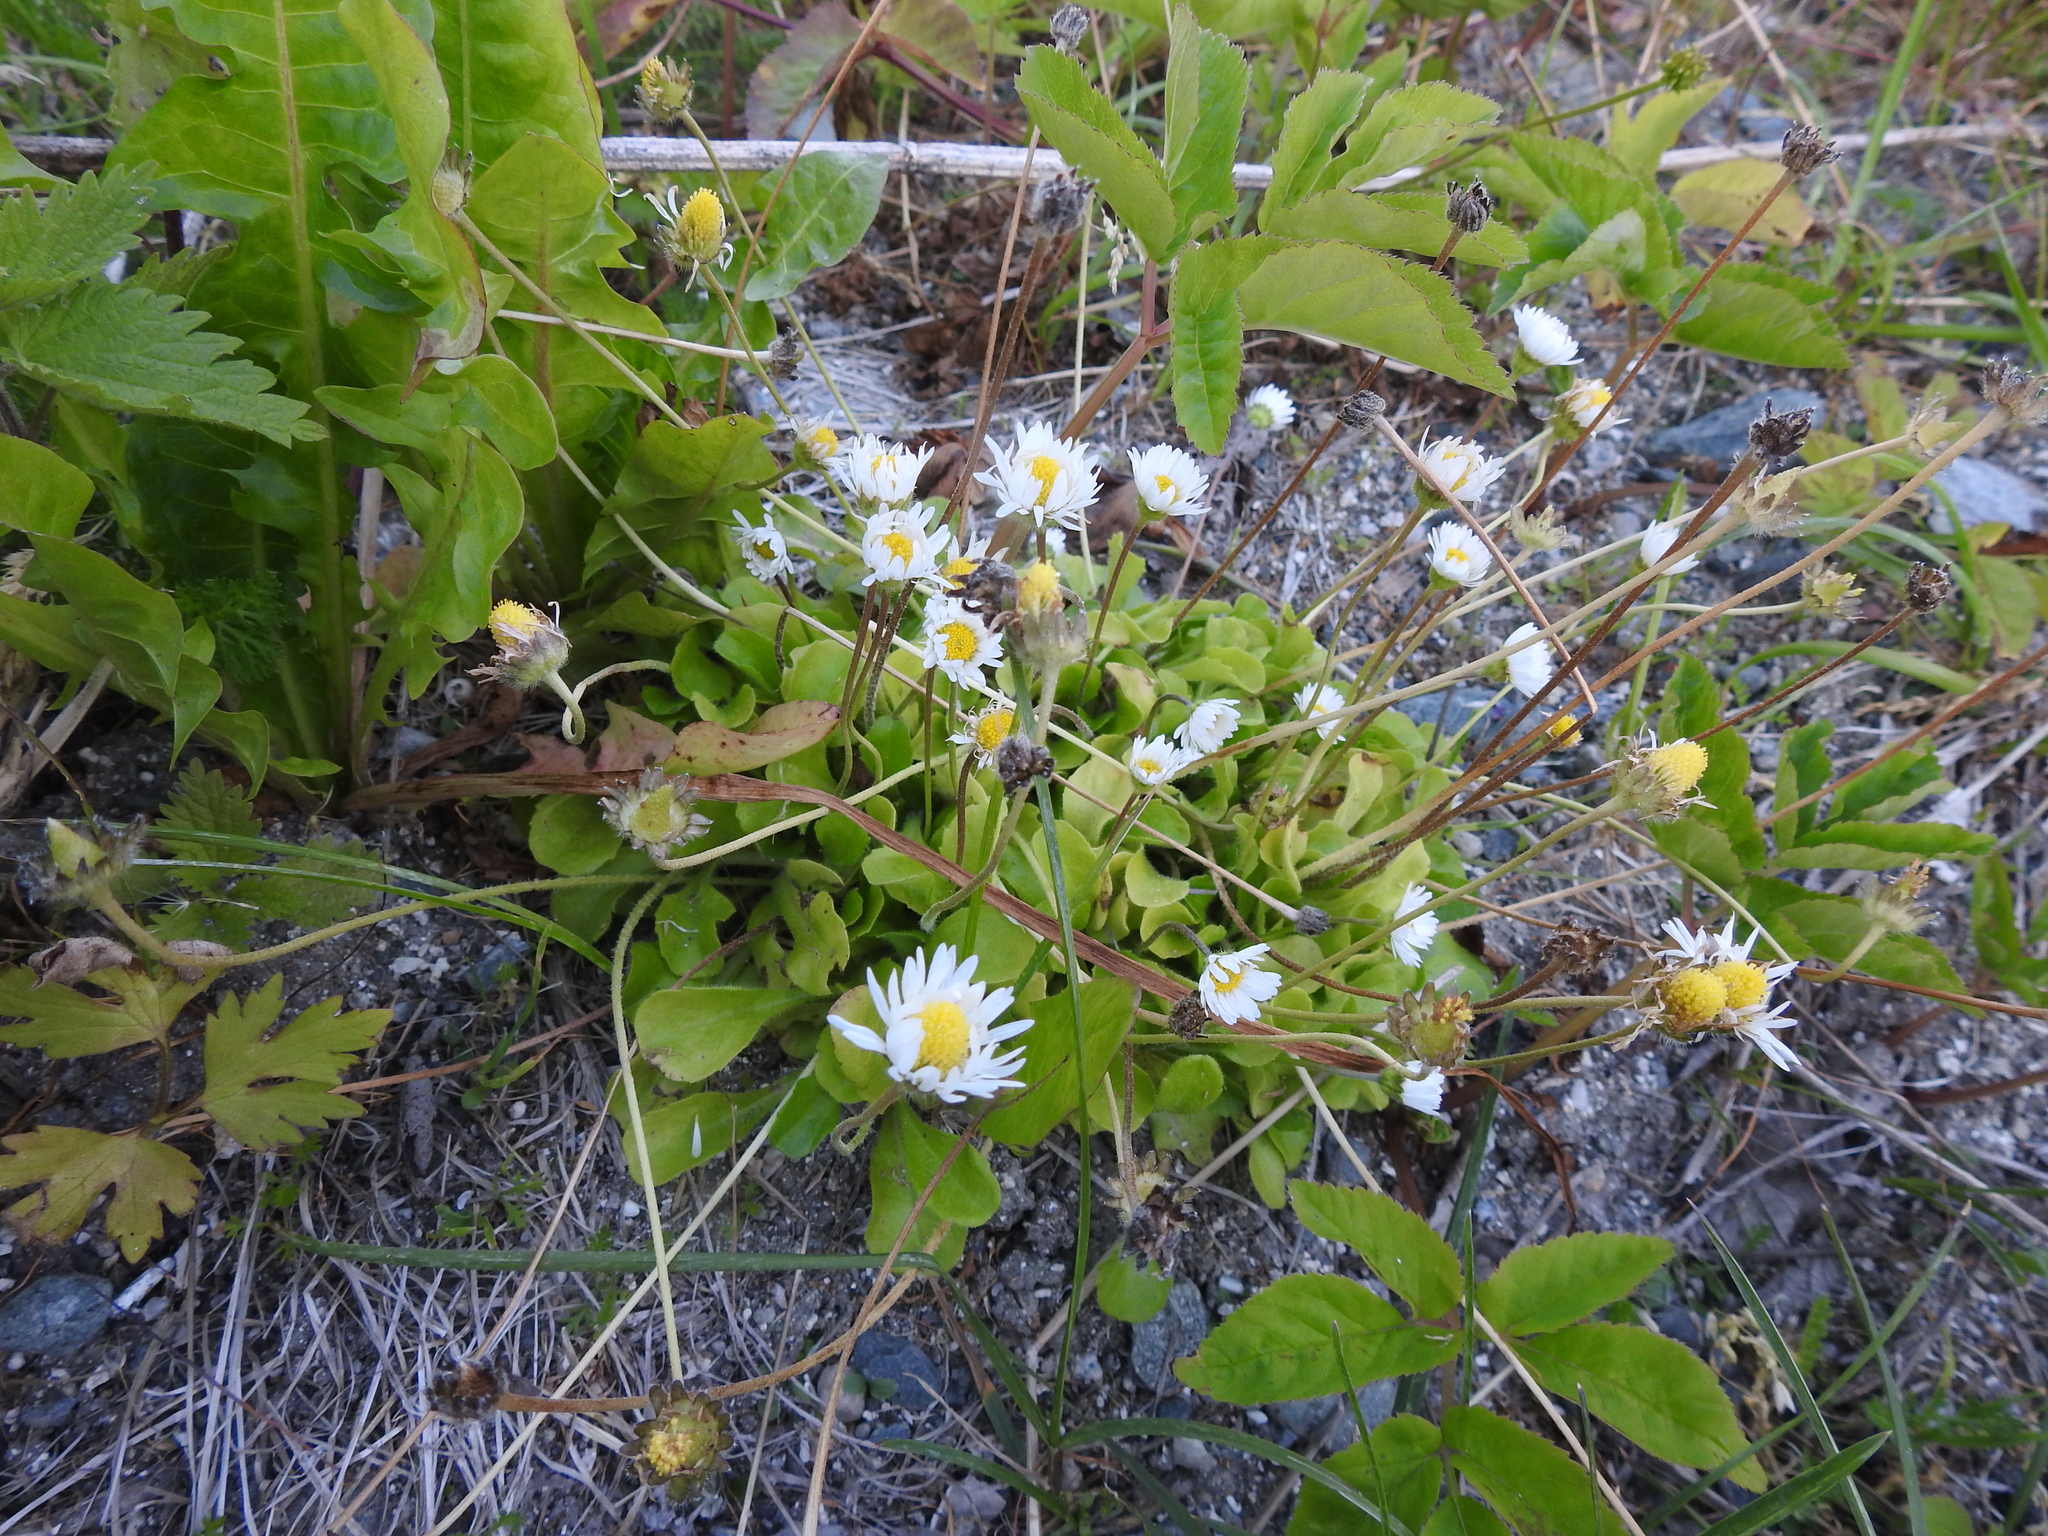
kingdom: Plantae
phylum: Tracheophyta
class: Magnoliopsida
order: Asterales
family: Asteraceae
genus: Bellis
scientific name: Bellis perennis
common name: Lawndaisy
